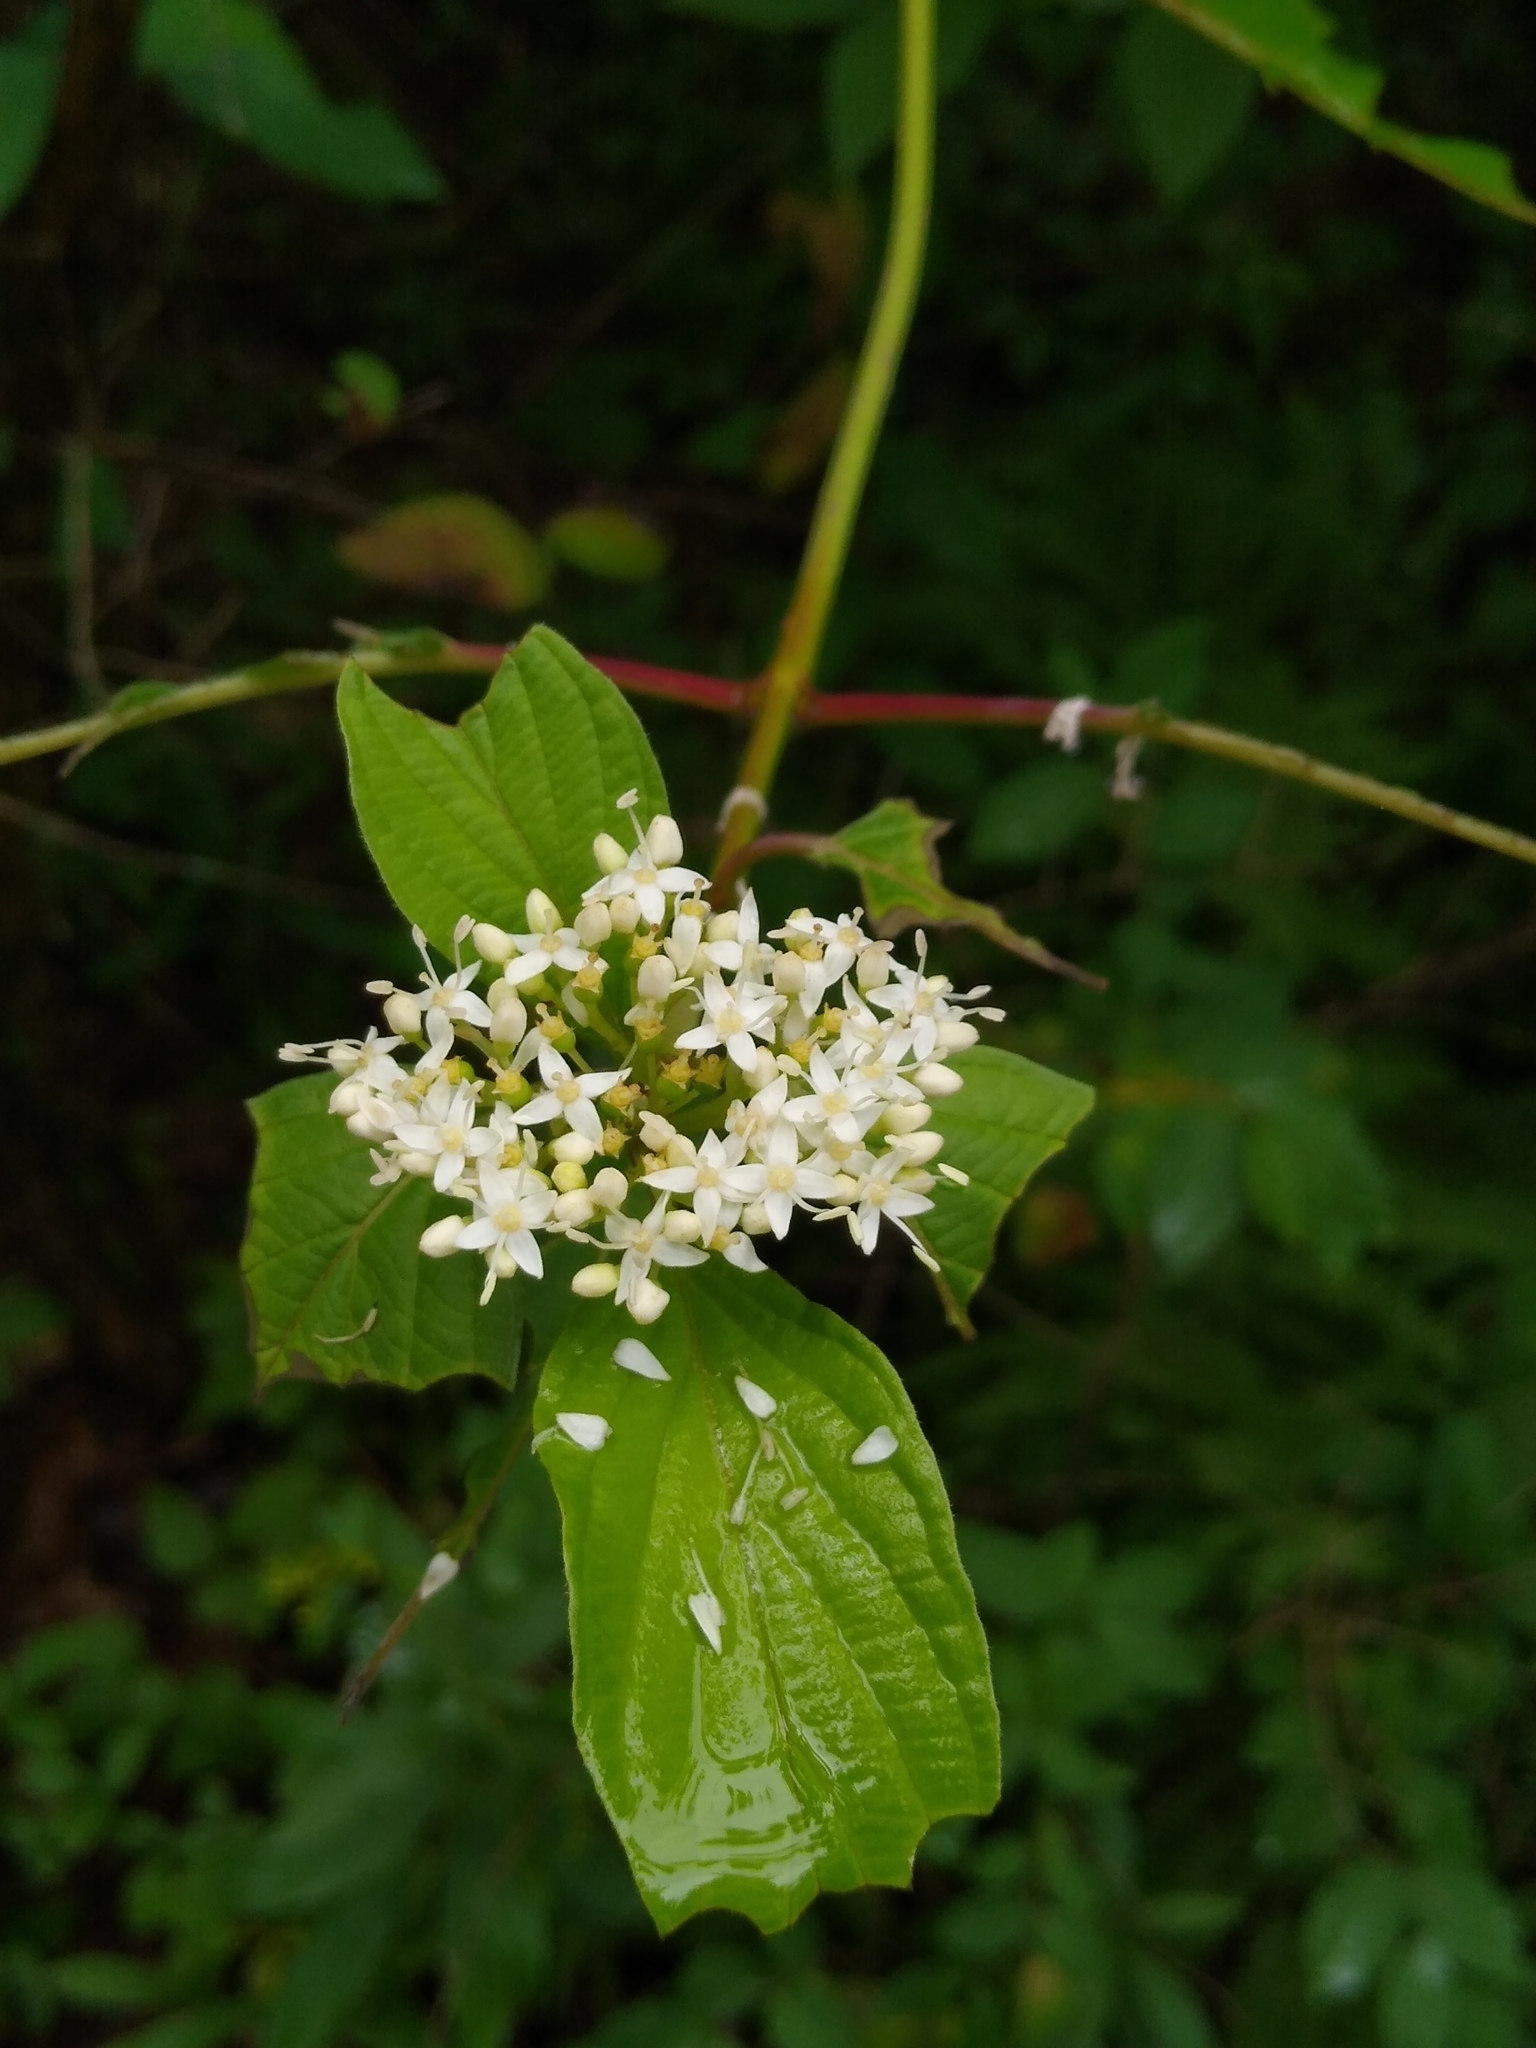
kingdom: Plantae
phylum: Tracheophyta
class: Magnoliopsida
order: Cornales
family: Cornaceae
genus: Cornus
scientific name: Cornus sericea
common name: Red-osier dogwood
